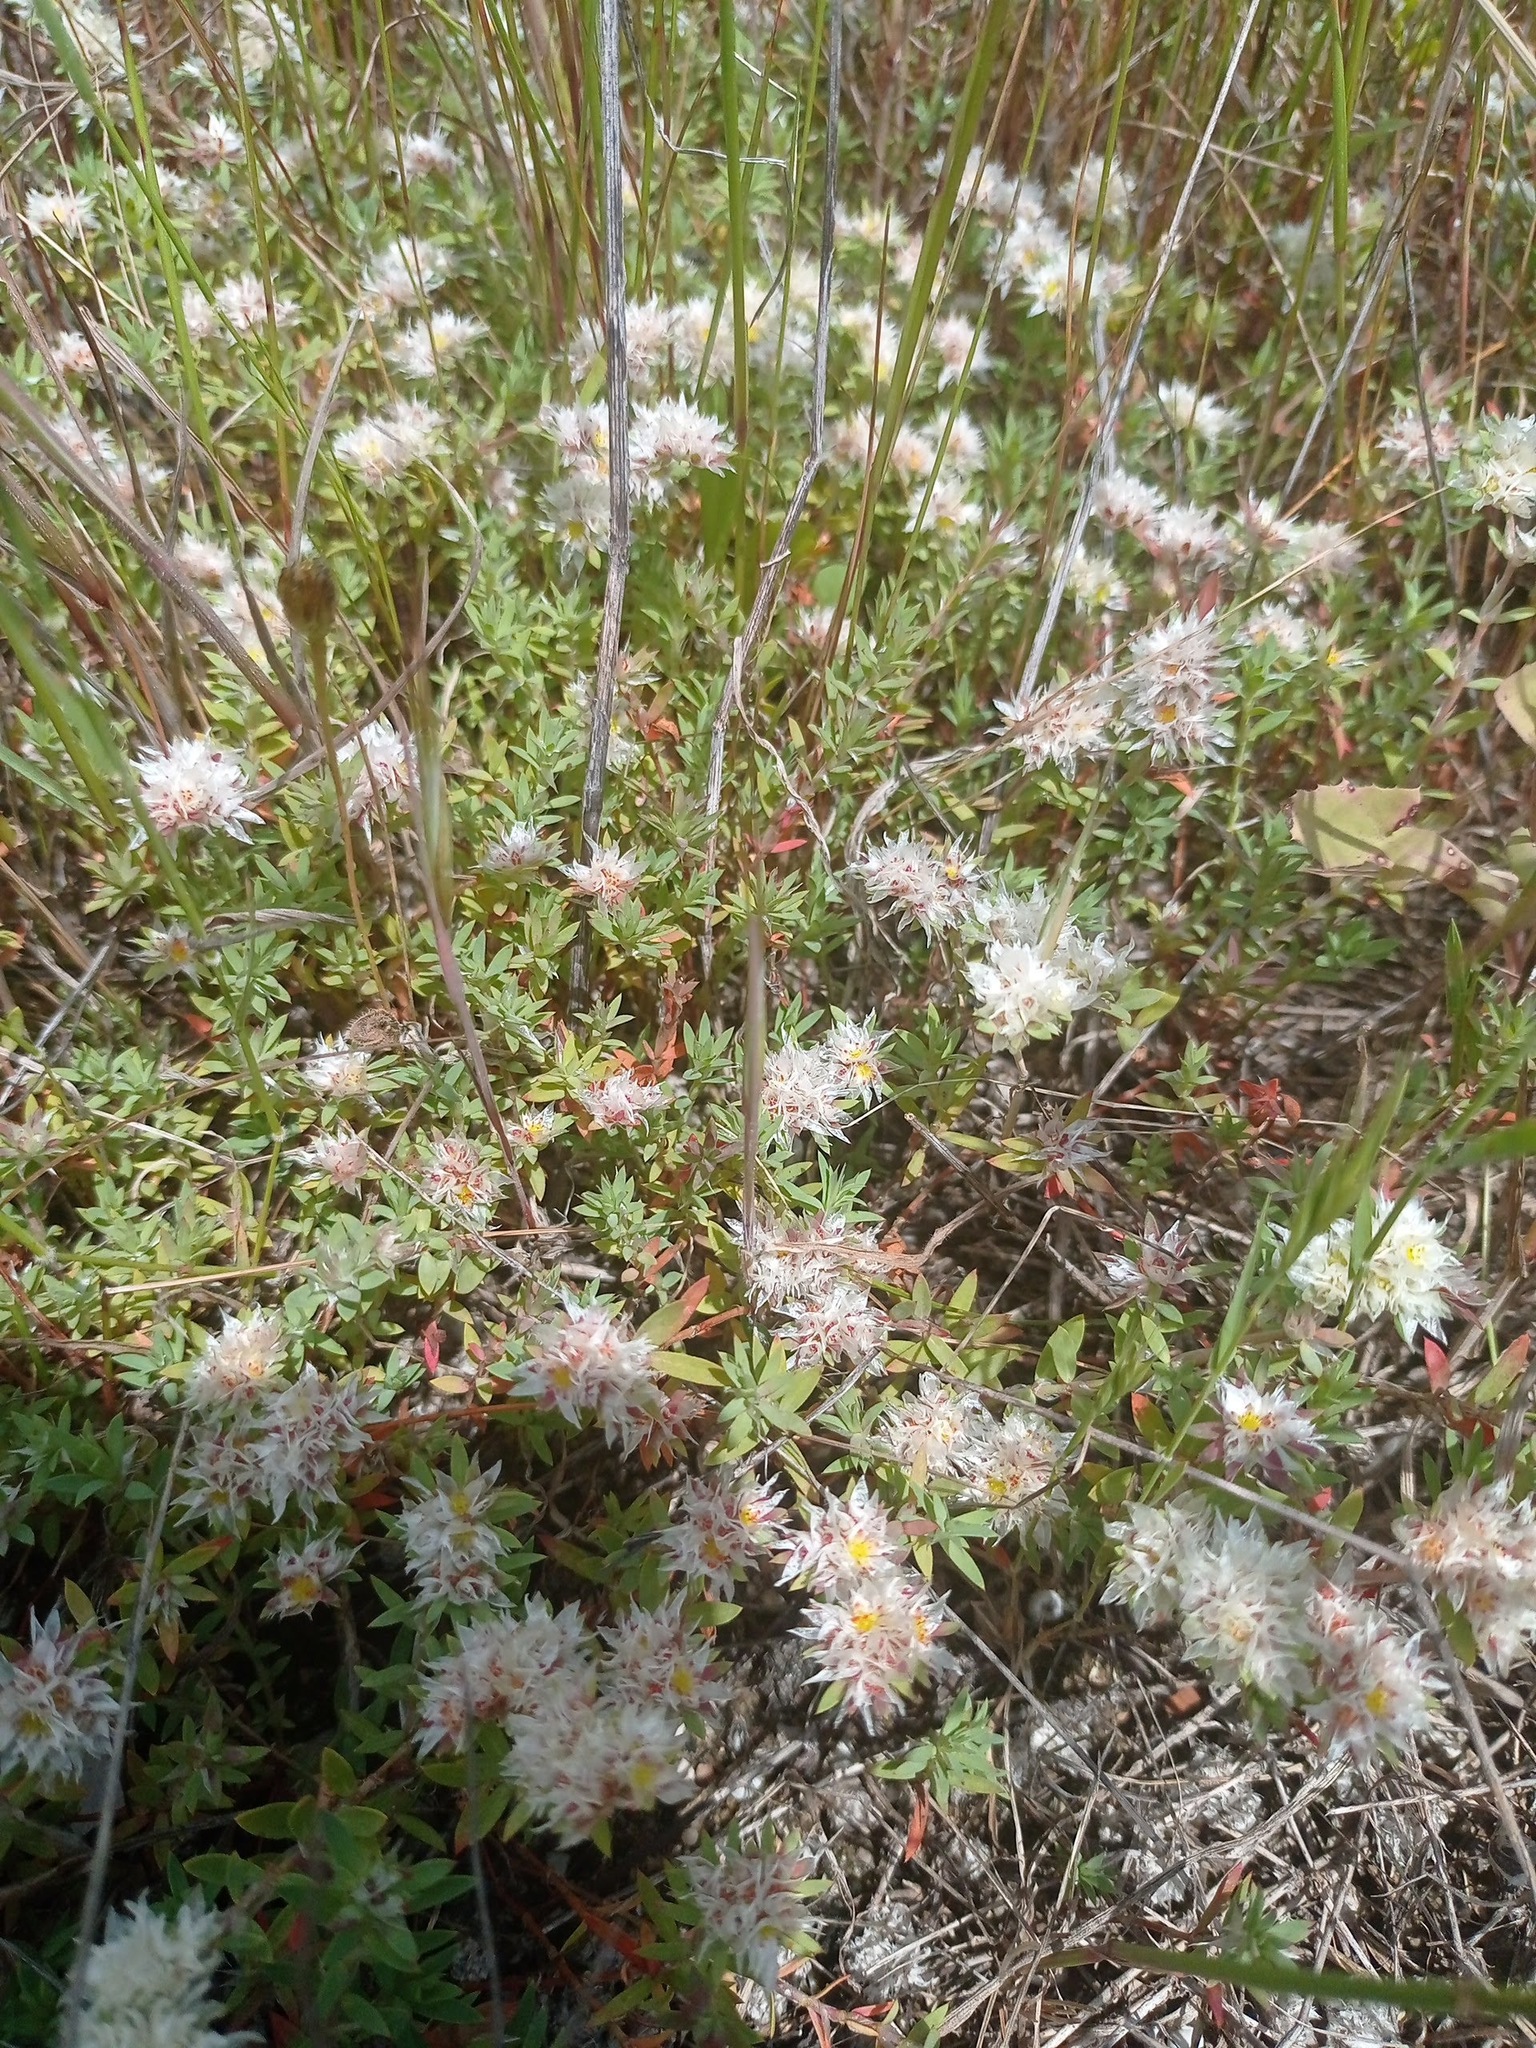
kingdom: Plantae
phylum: Tracheophyta
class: Magnoliopsida
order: Caryophyllales
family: Caryophyllaceae
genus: Paronychia
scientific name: Paronychia argentea
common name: Silver nailroot
